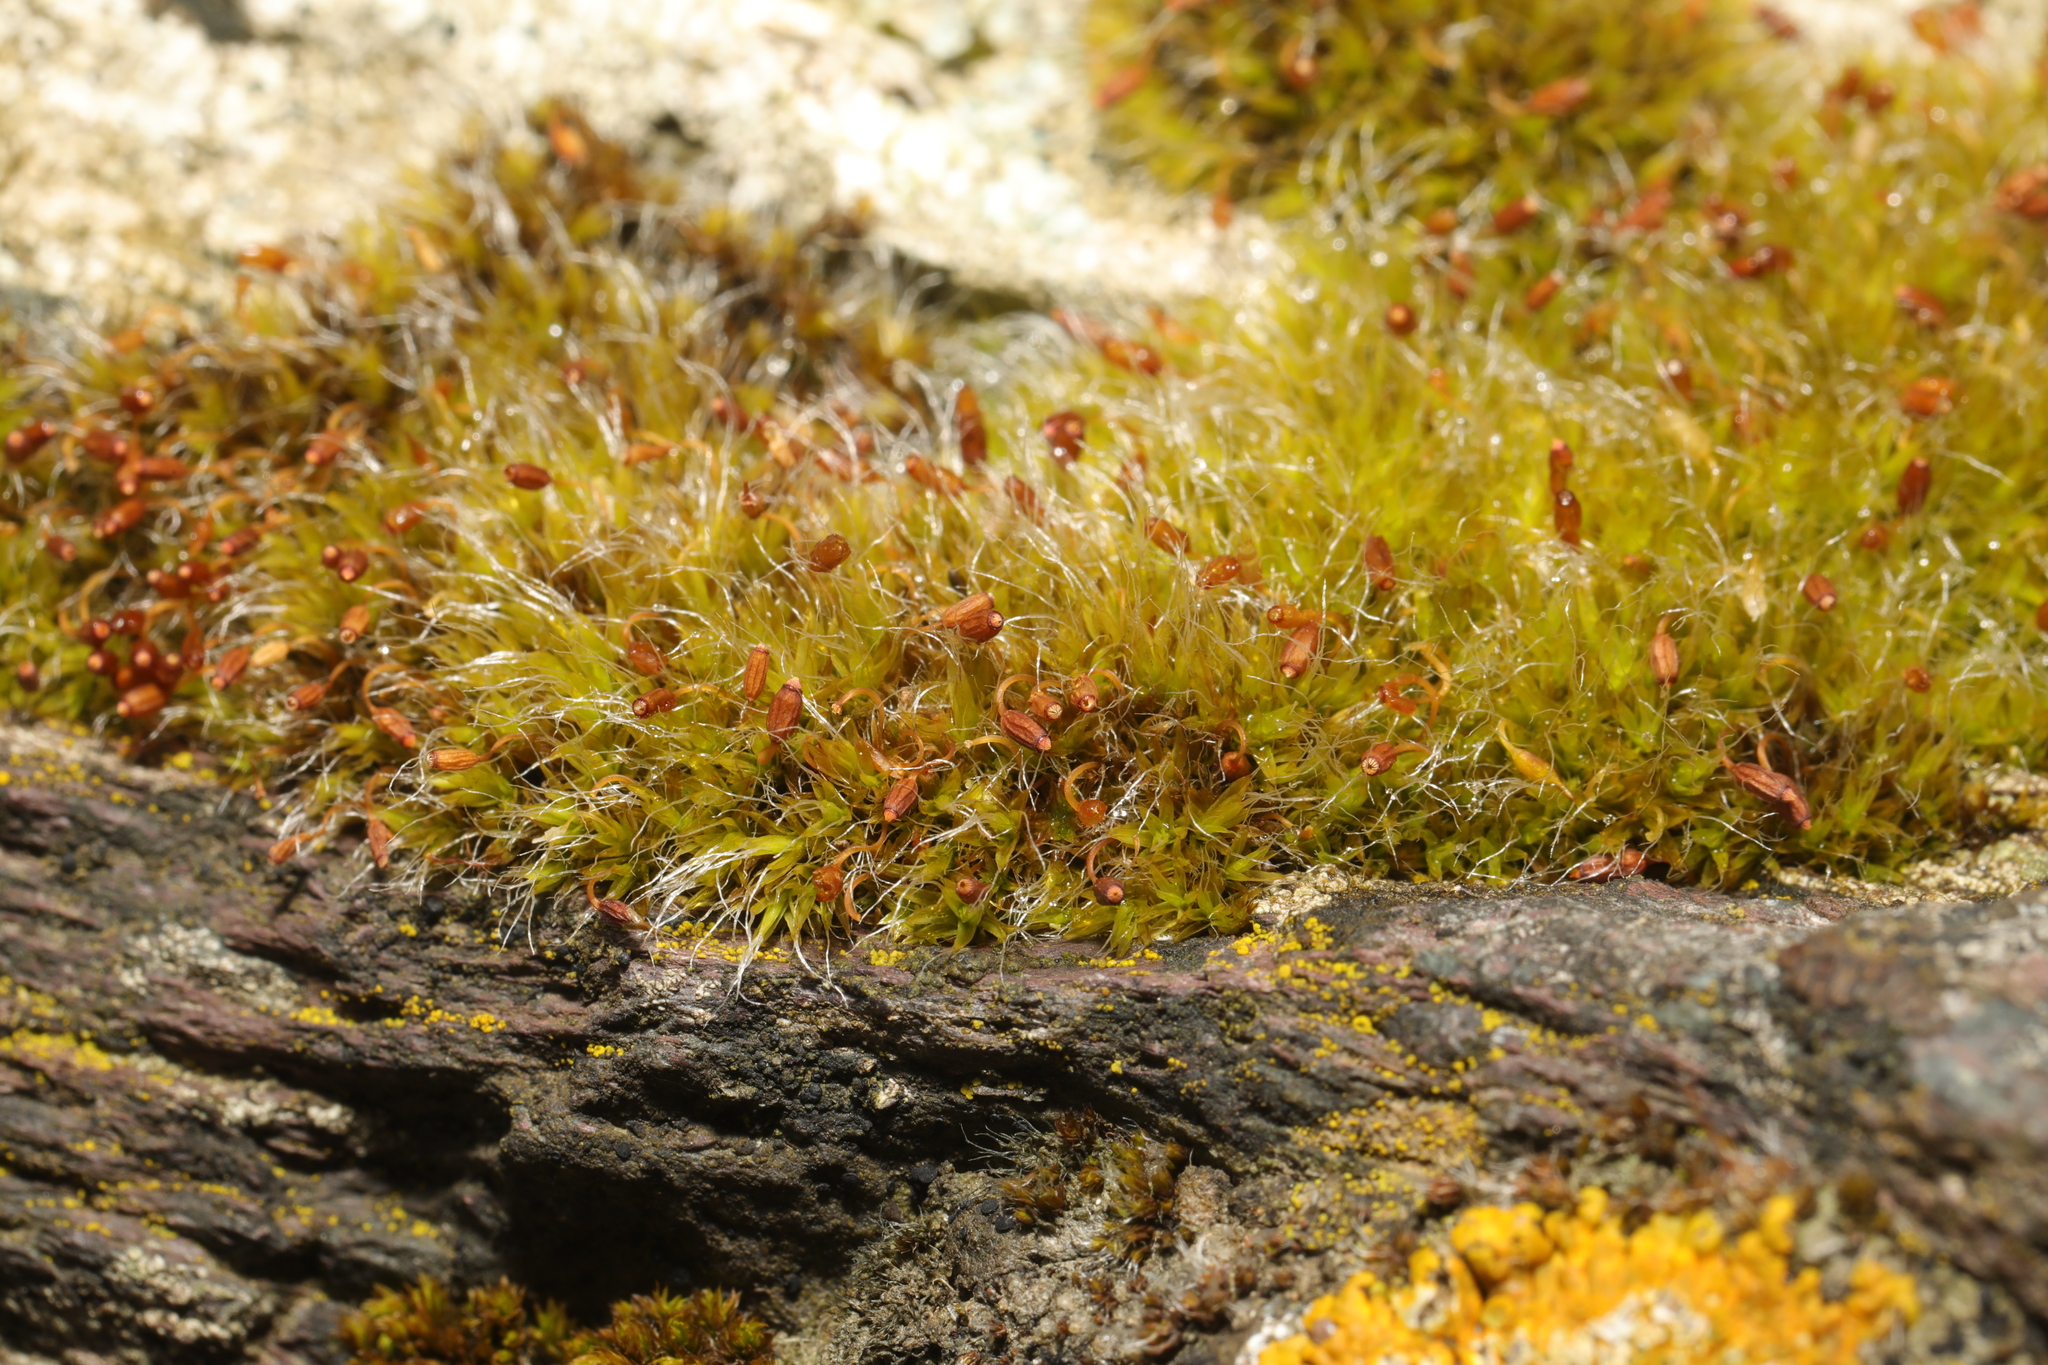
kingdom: Plantae
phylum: Bryophyta
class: Bryopsida
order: Grimmiales
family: Grimmiaceae
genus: Grimmia
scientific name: Grimmia pulvinata
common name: Grey-cushioned grimmia
